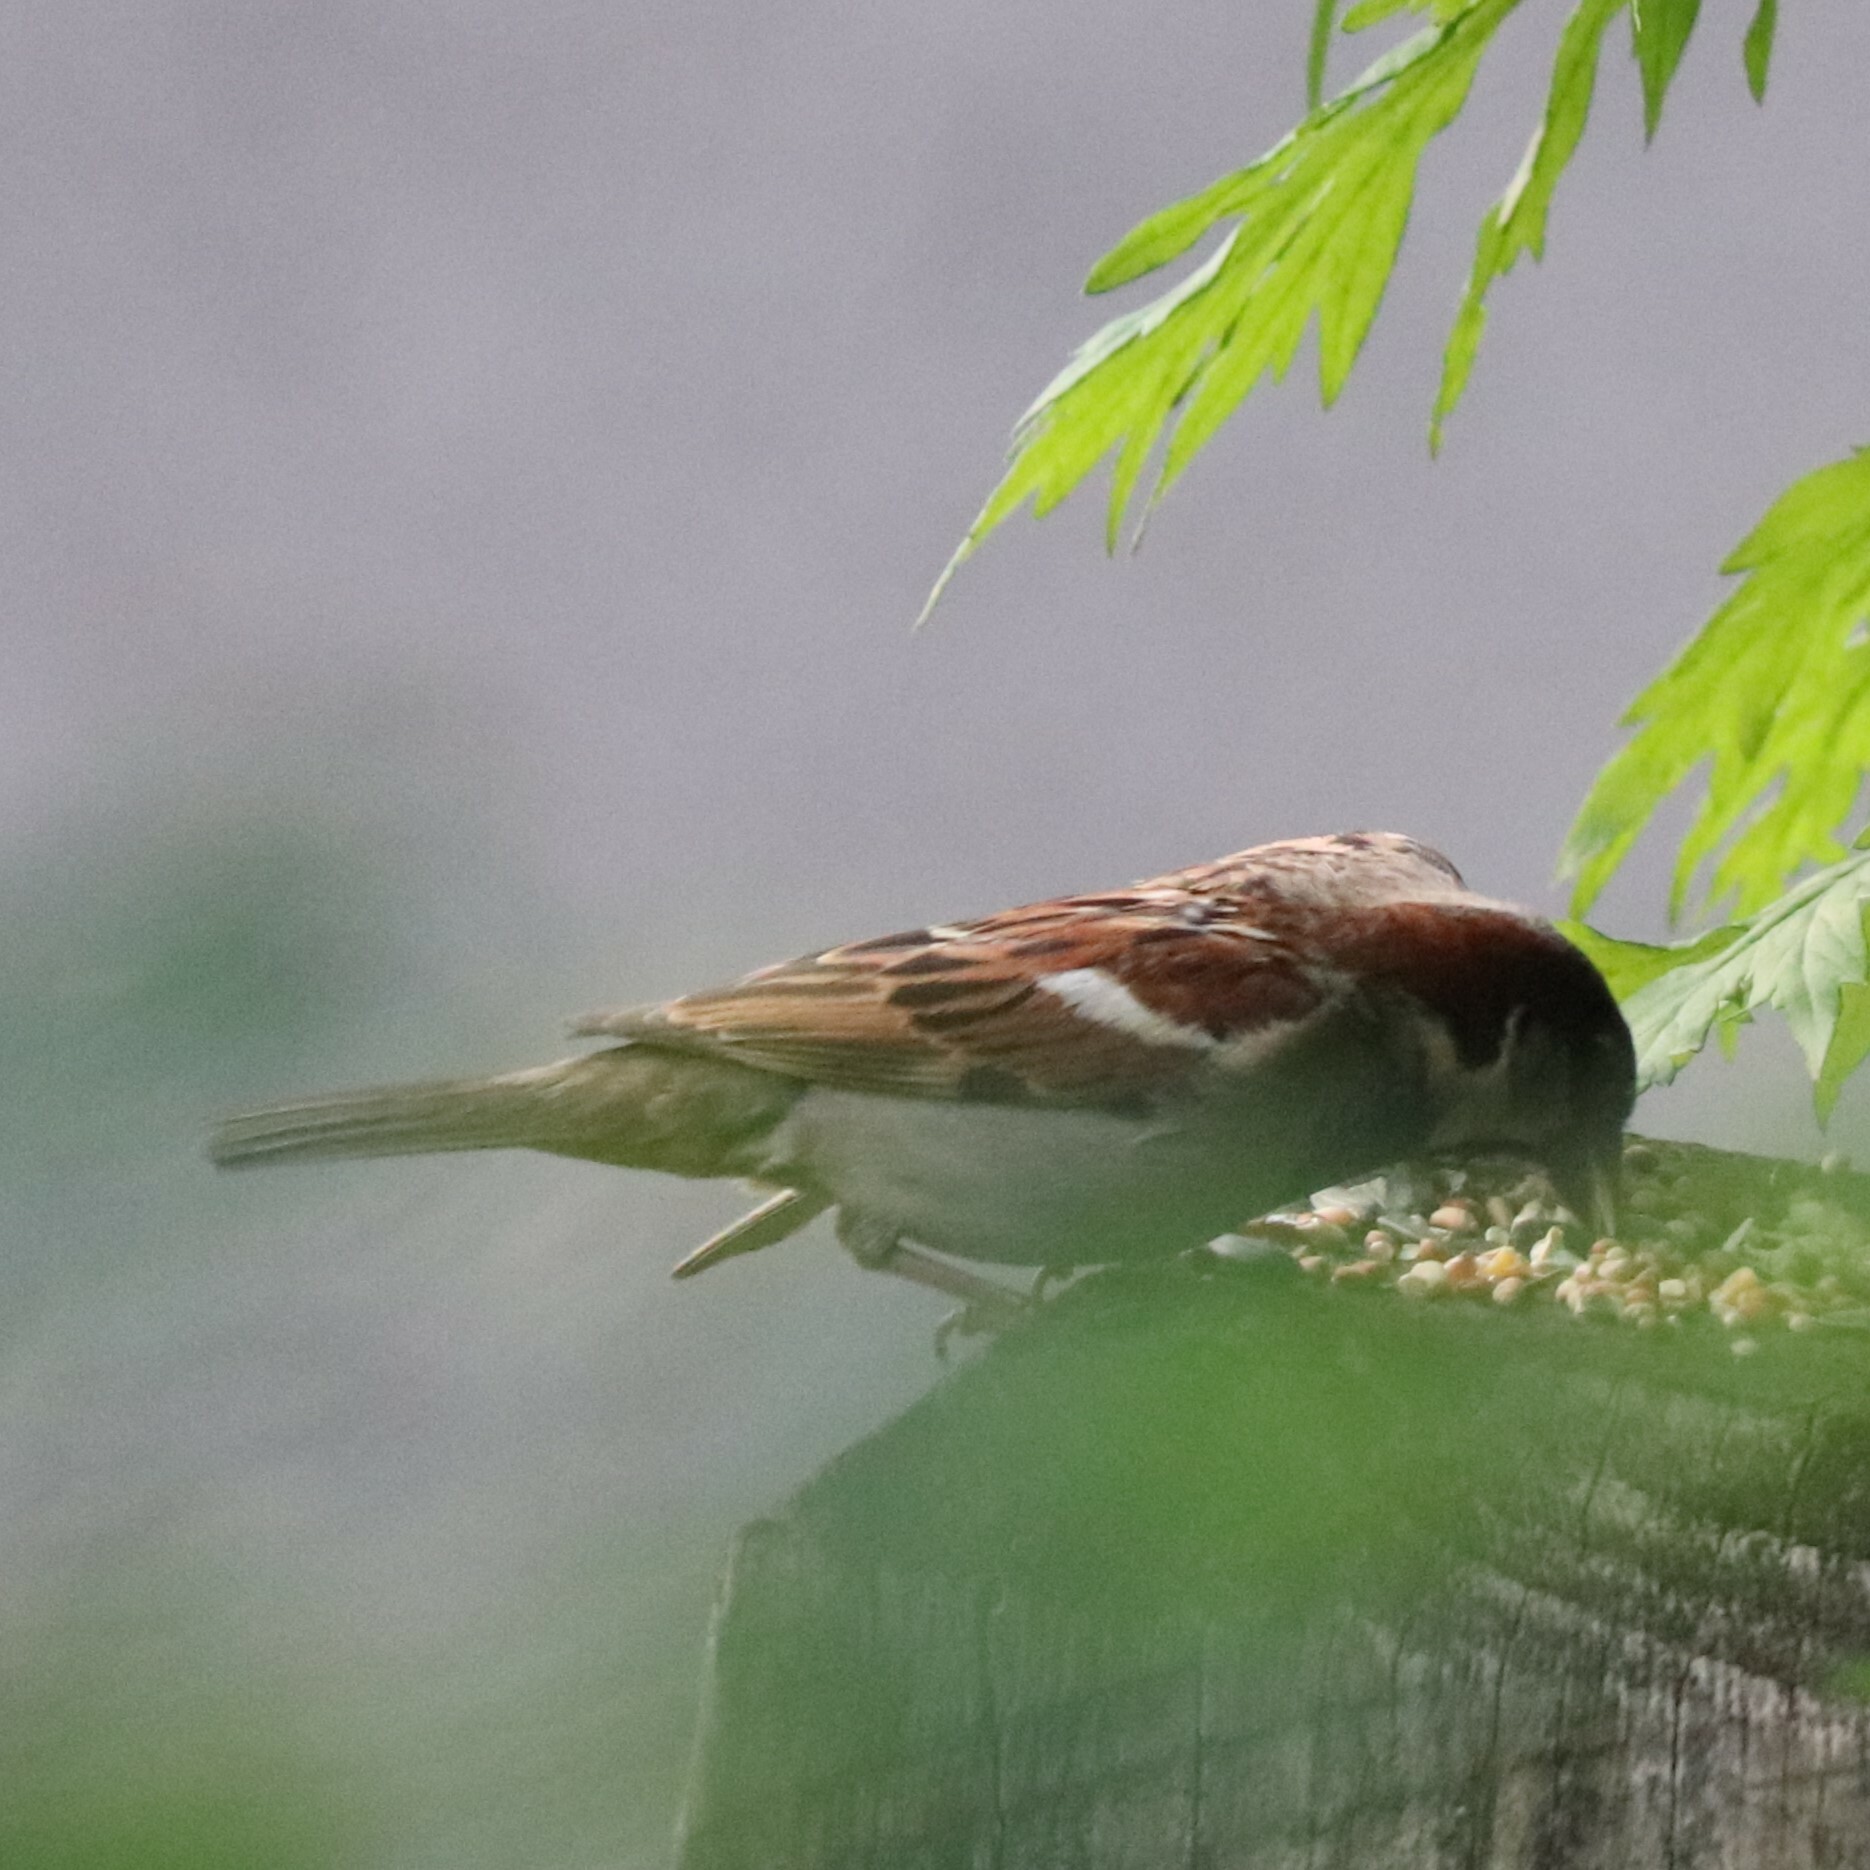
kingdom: Animalia
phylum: Chordata
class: Aves
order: Passeriformes
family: Passeridae
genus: Passer
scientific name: Passer domesticus
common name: House sparrow
